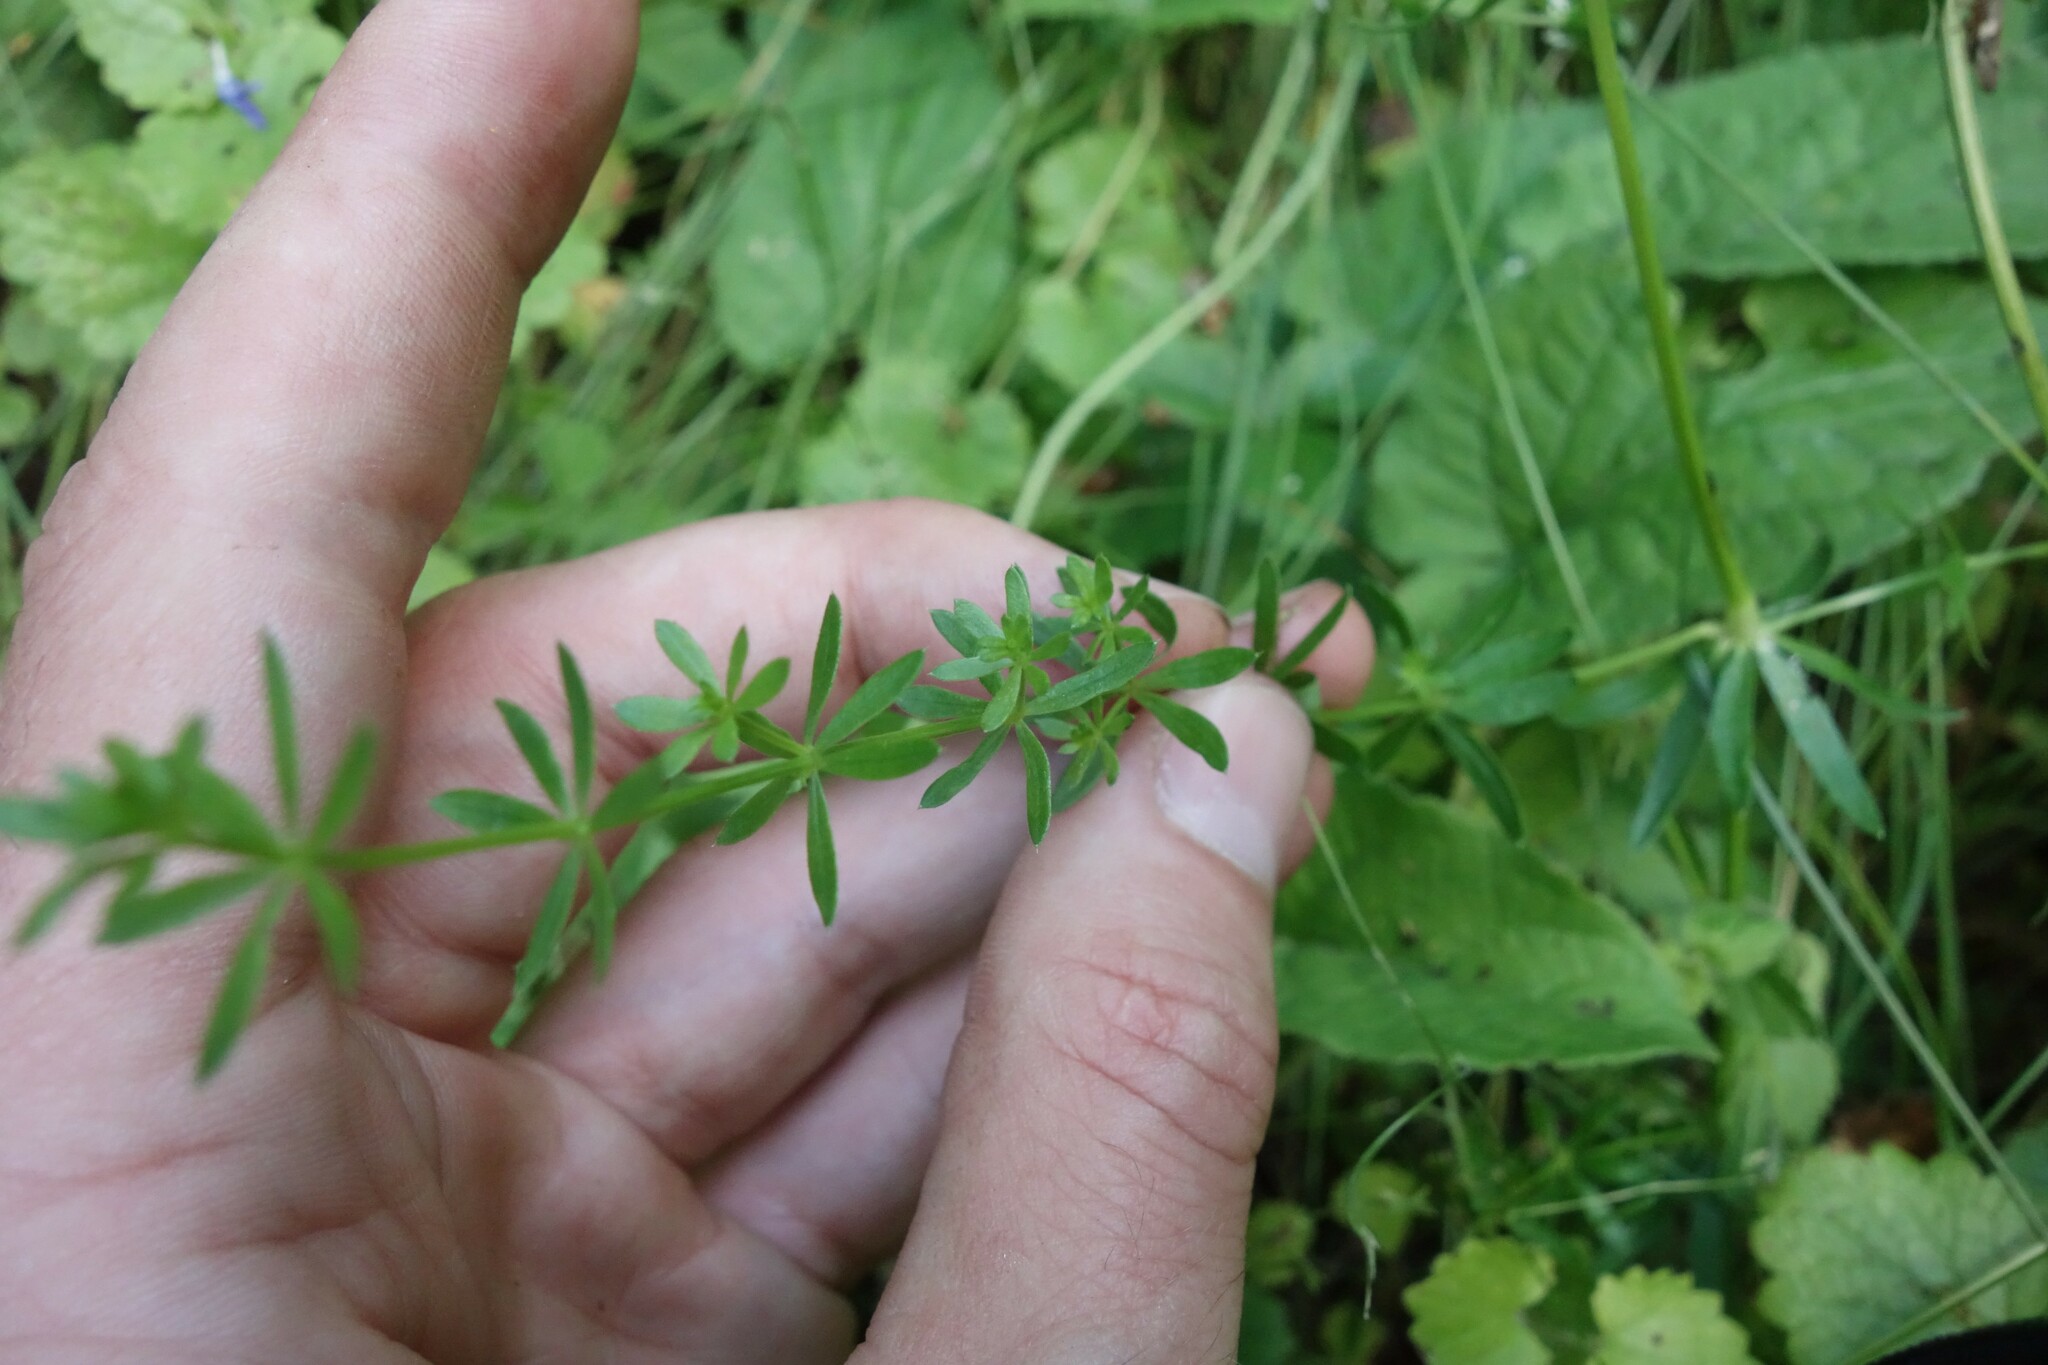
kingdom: Plantae
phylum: Tracheophyta
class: Magnoliopsida
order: Gentianales
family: Rubiaceae
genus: Galium
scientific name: Galium mollugo
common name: Hedge bedstraw
